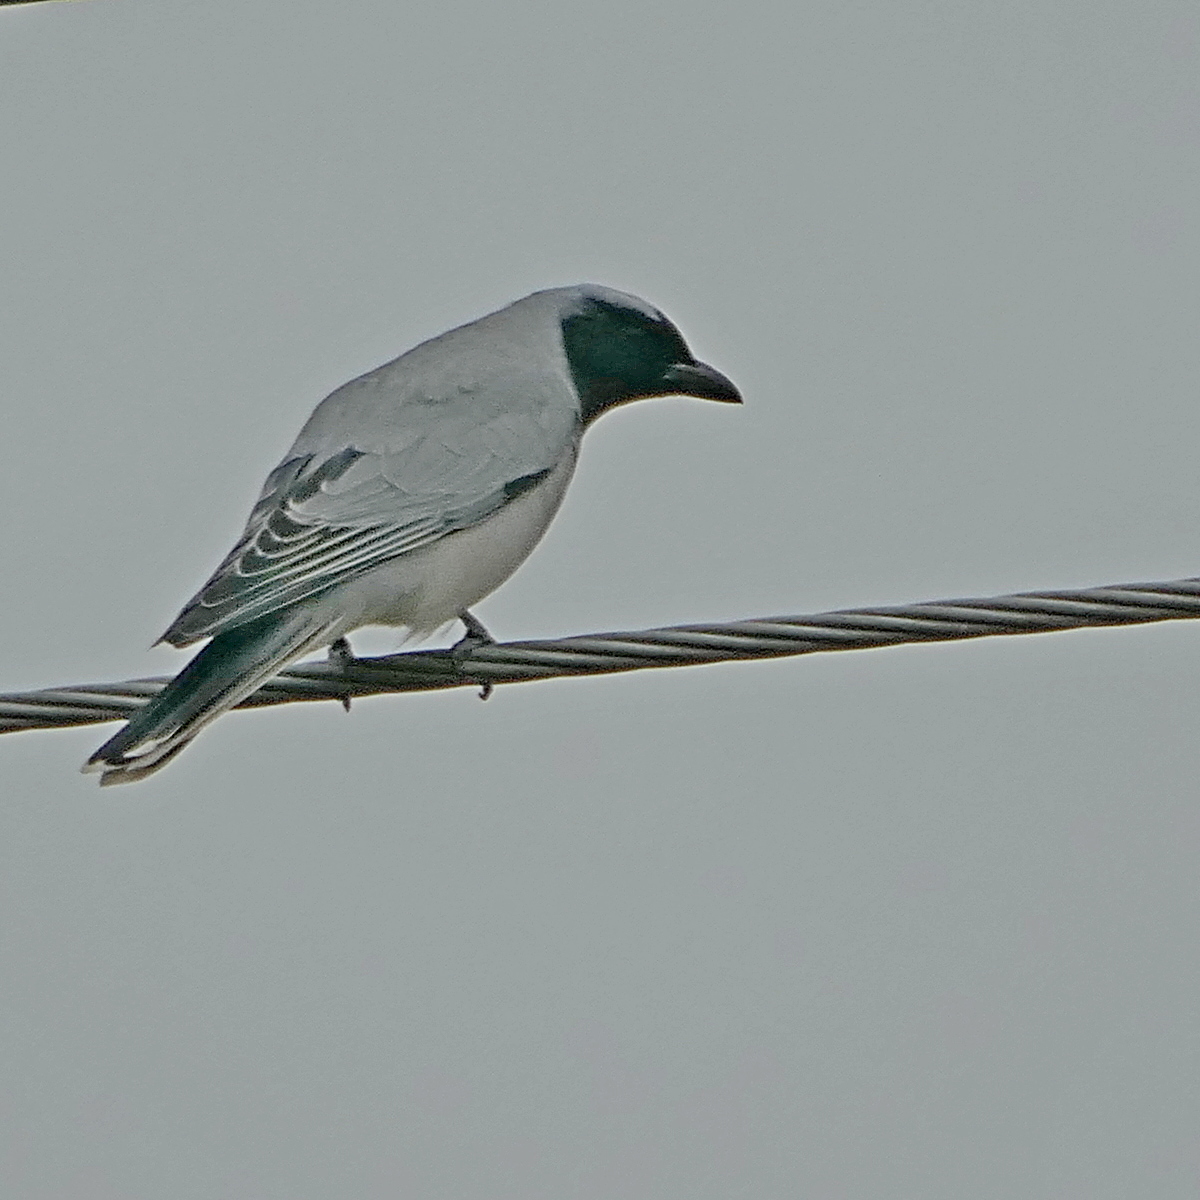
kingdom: Animalia
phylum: Chordata
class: Aves
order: Passeriformes
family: Campephagidae
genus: Coracina
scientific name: Coracina novaehollandiae
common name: Black-faced cuckooshrike
